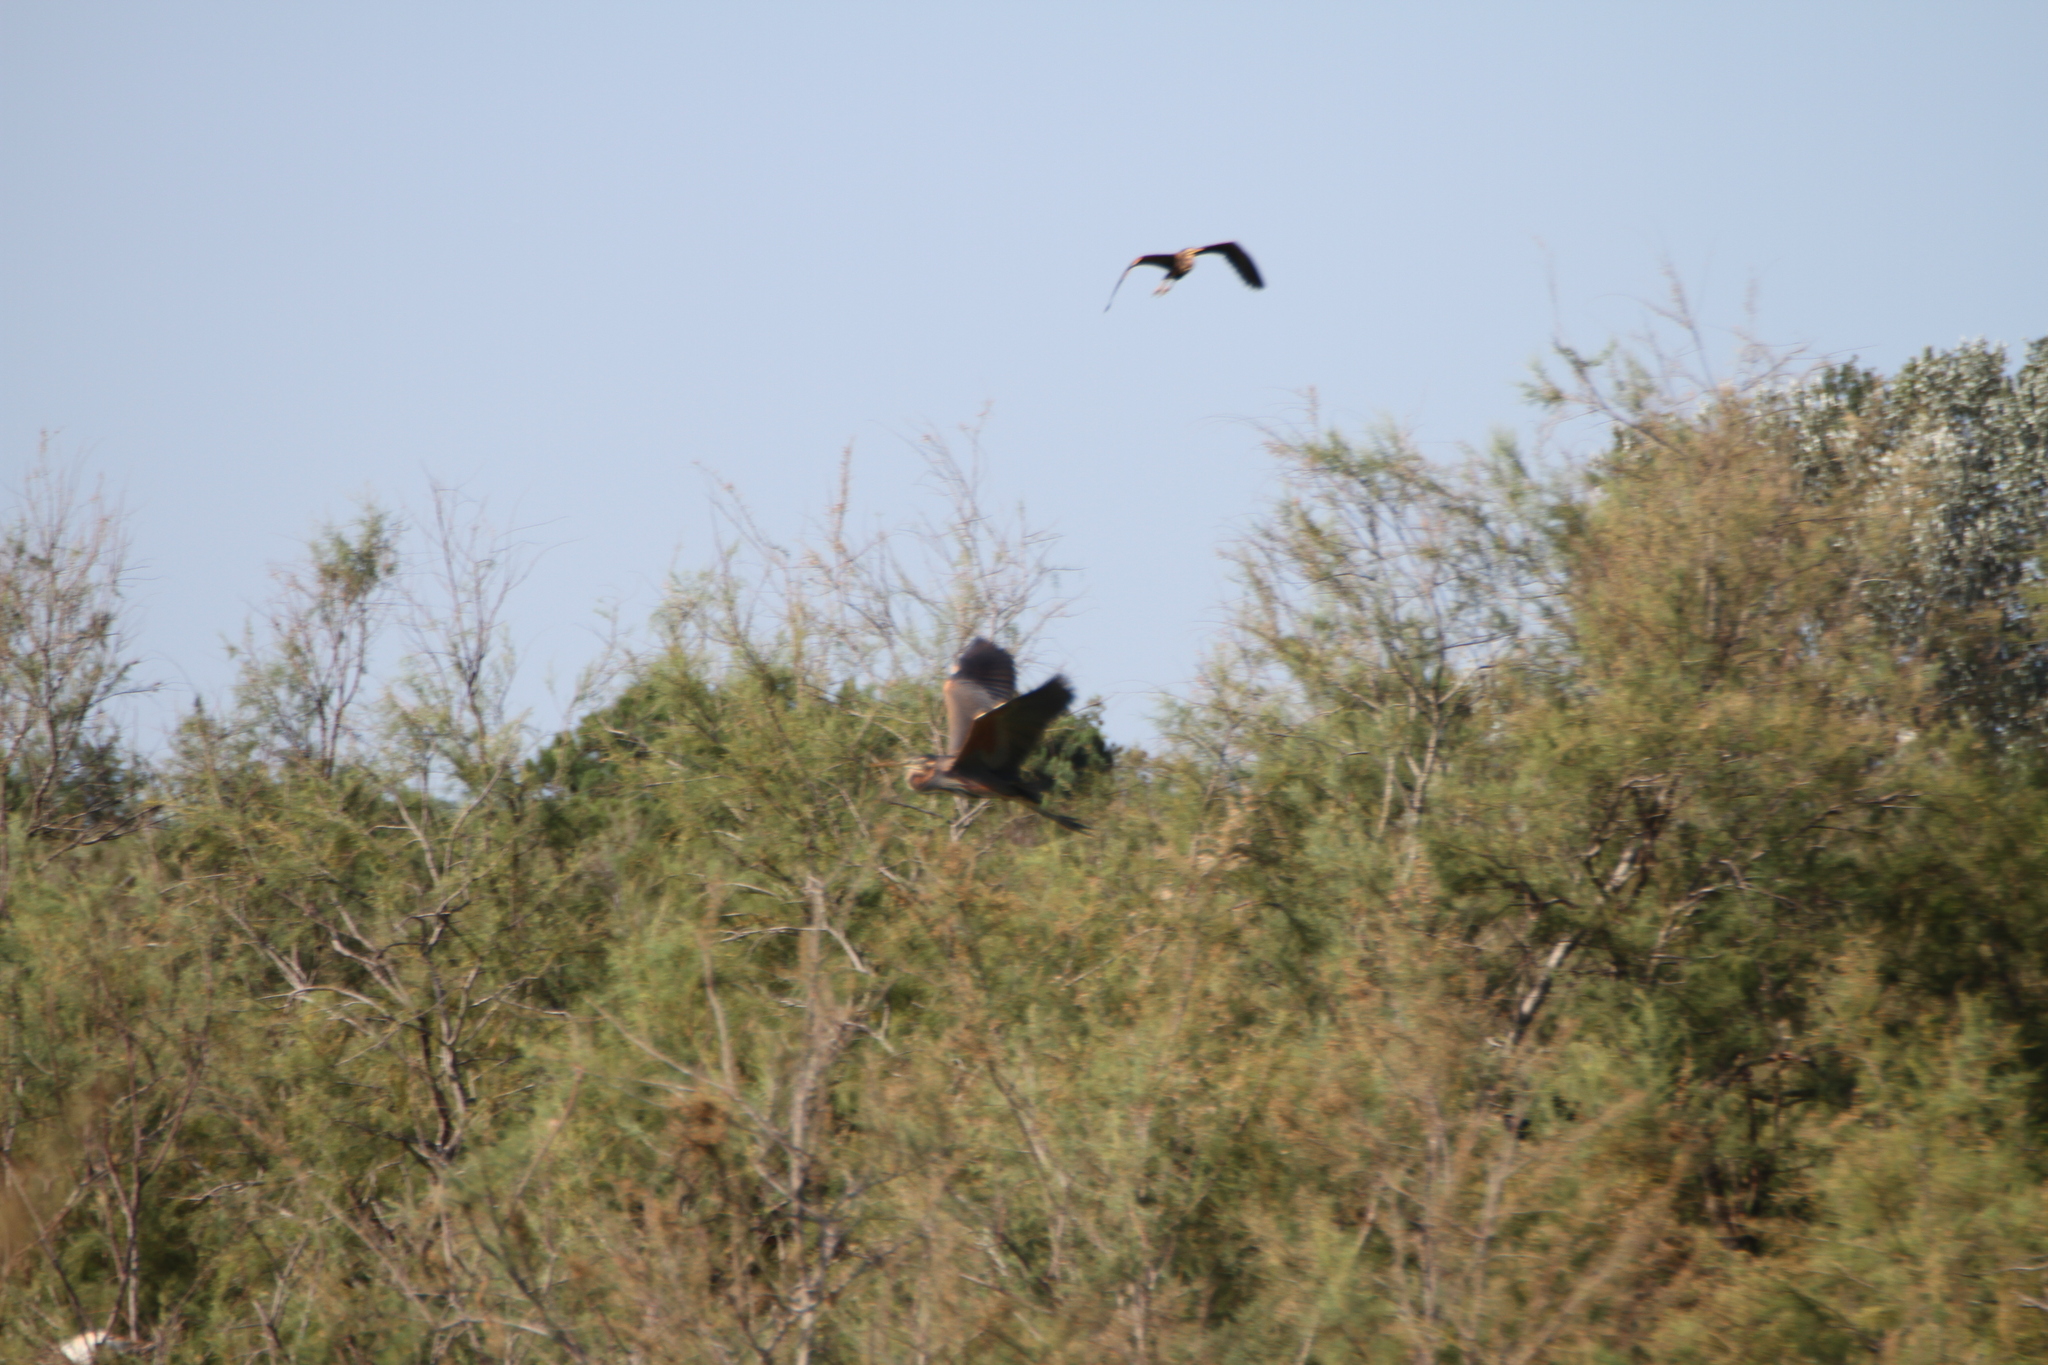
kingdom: Animalia
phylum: Chordata
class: Aves
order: Pelecaniformes
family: Ardeidae
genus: Ardea
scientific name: Ardea purpurea
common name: Purple heron
